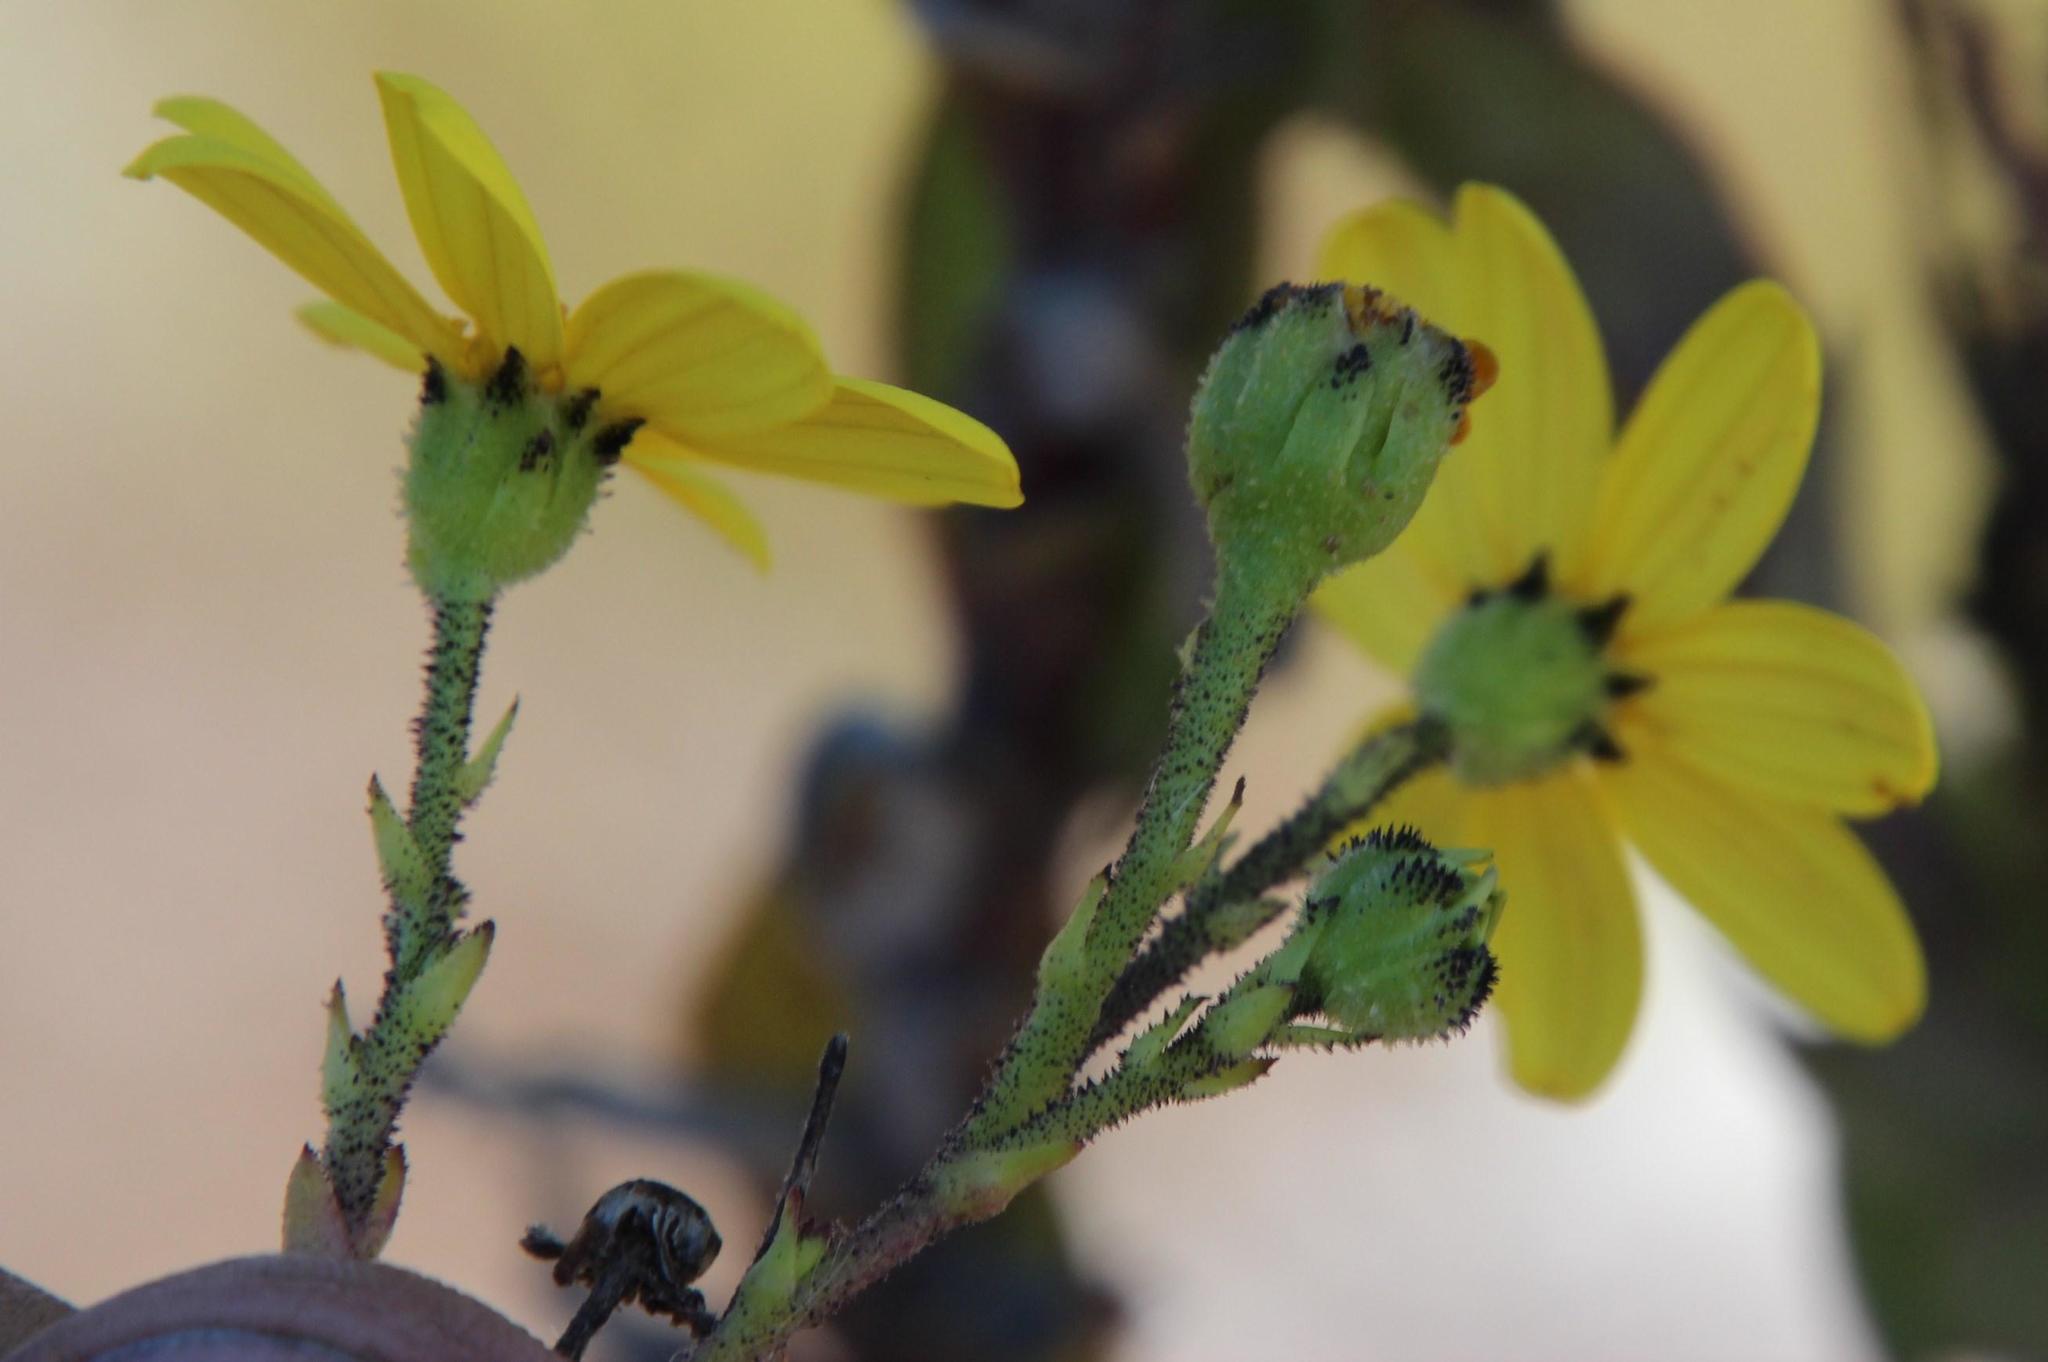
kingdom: Plantae
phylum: Tracheophyta
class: Magnoliopsida
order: Asterales
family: Asteraceae
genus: Osteospermum
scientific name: Osteospermum rotundifolium
